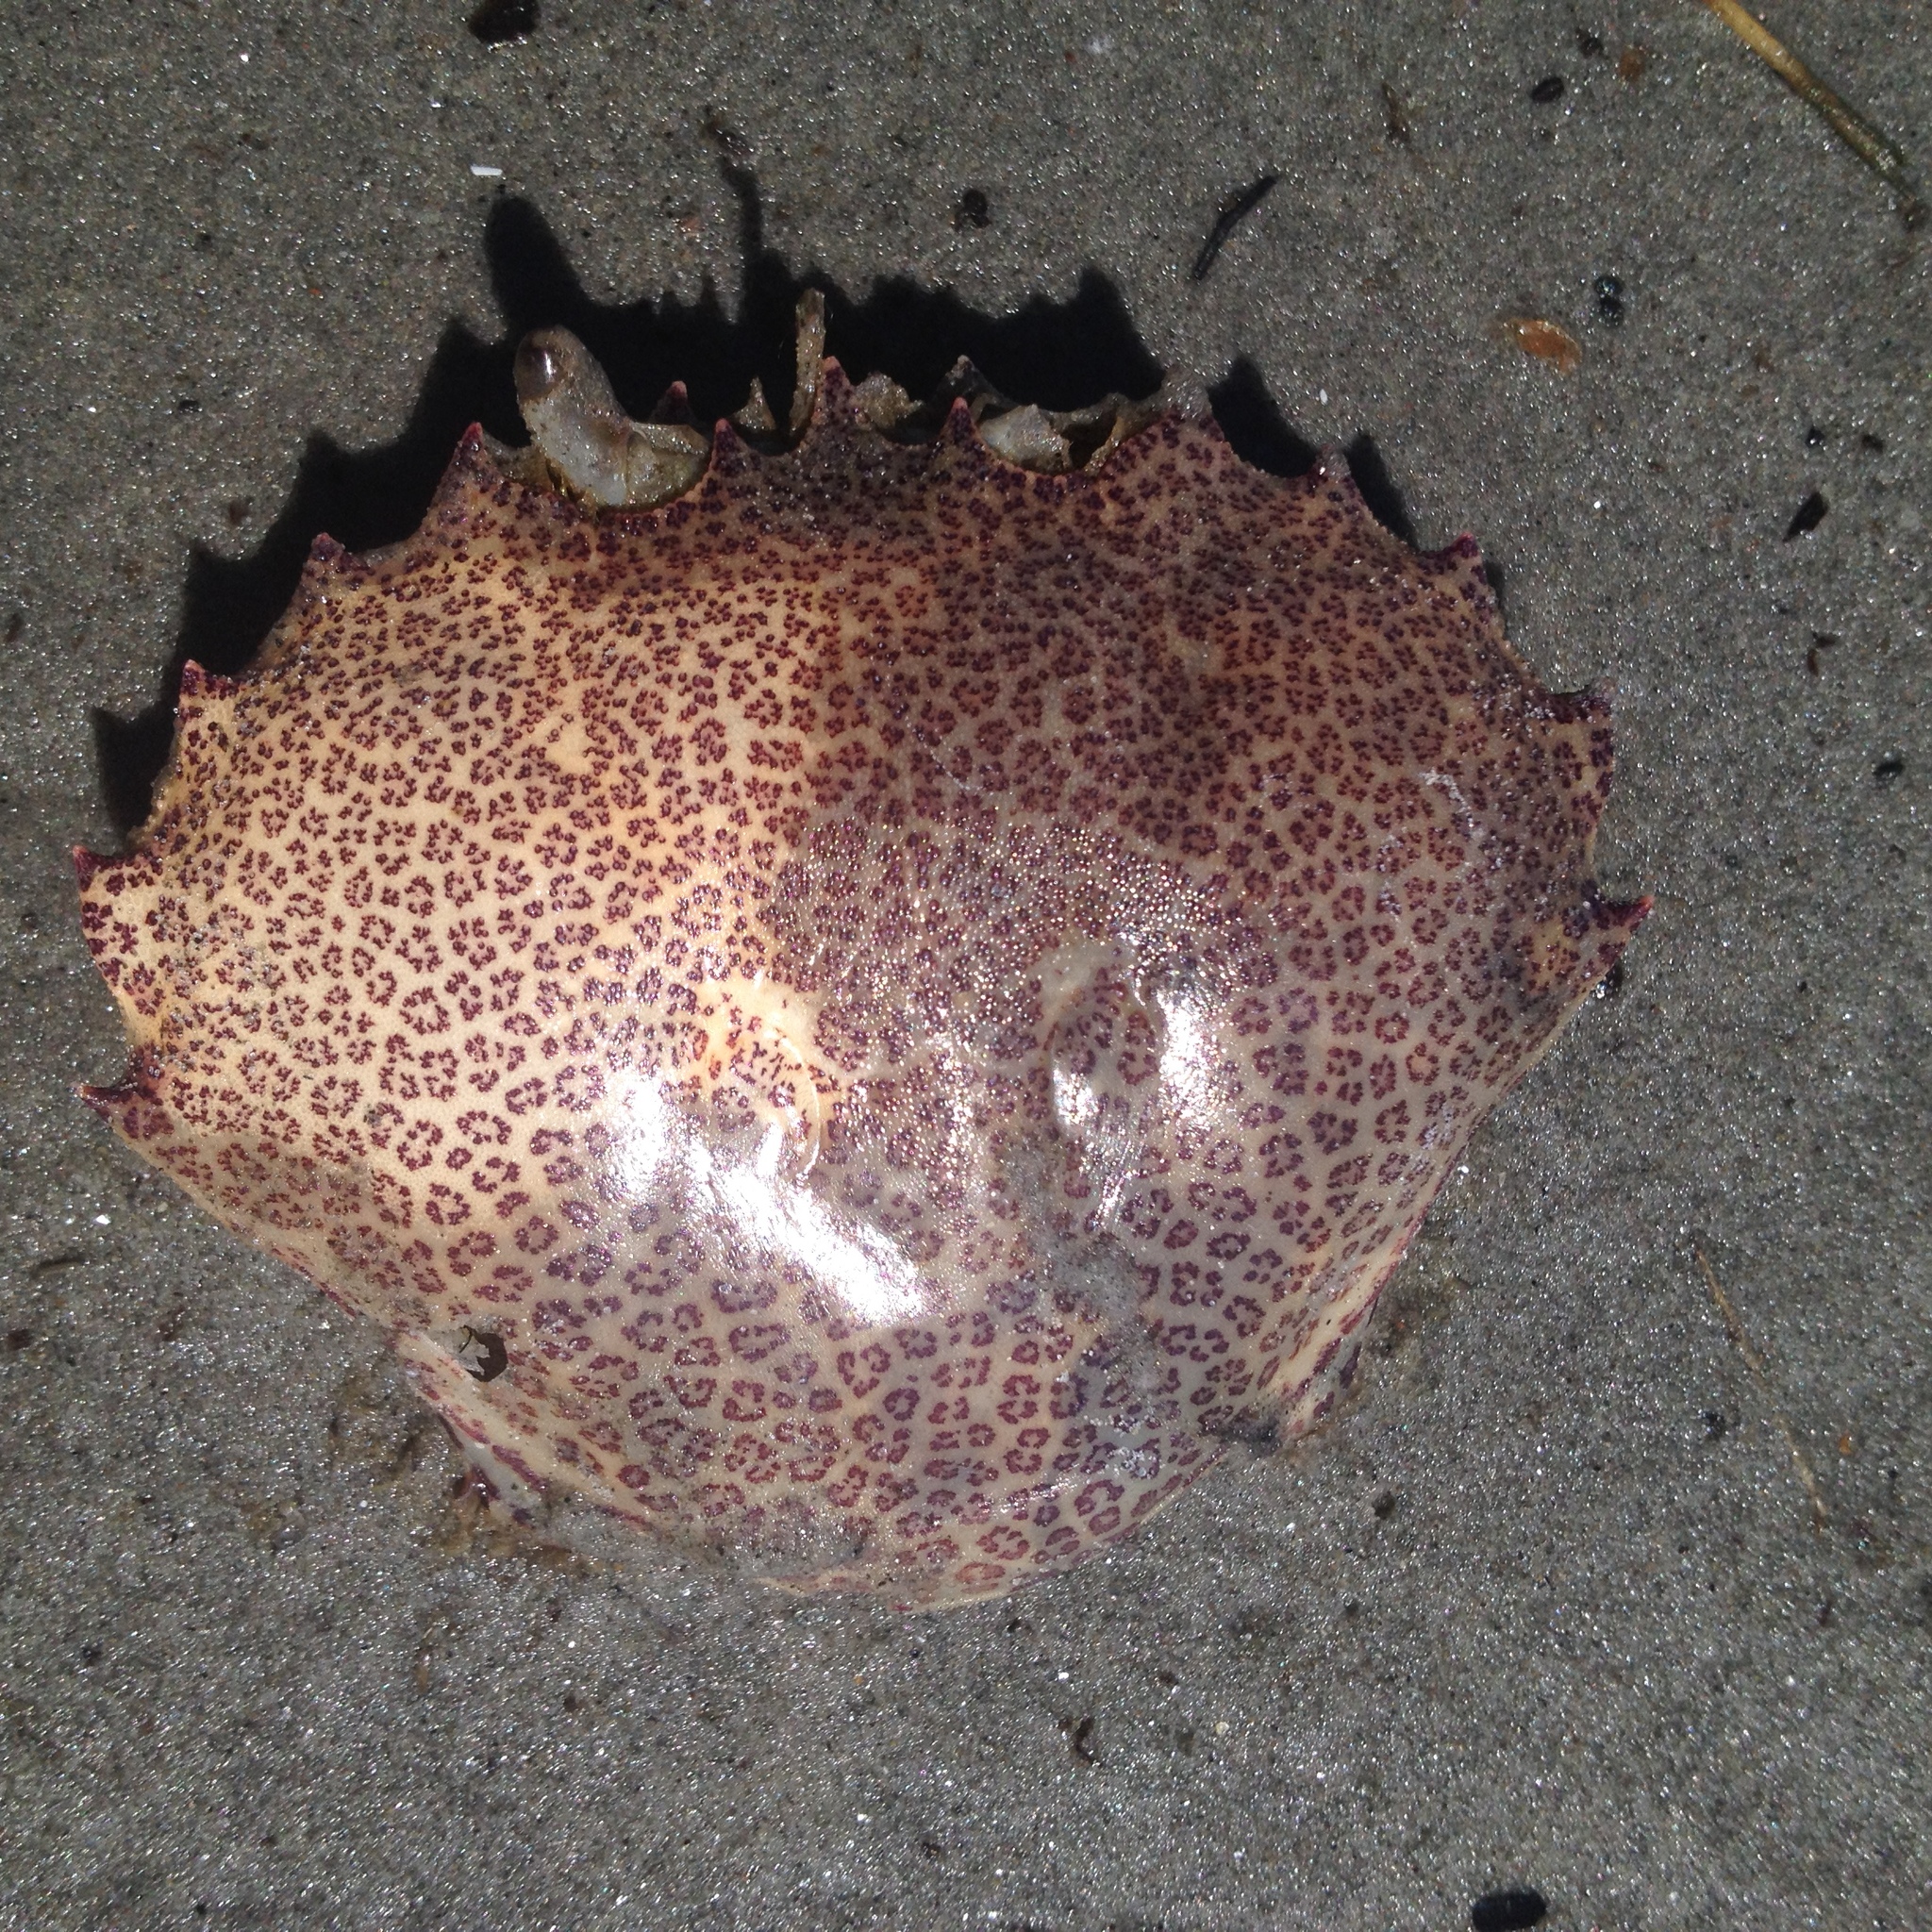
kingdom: Animalia
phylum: Arthropoda
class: Malacostraca
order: Decapoda
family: Ovalipidae
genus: Ovalipes
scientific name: Ovalipes ocellatus
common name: Lady crab
